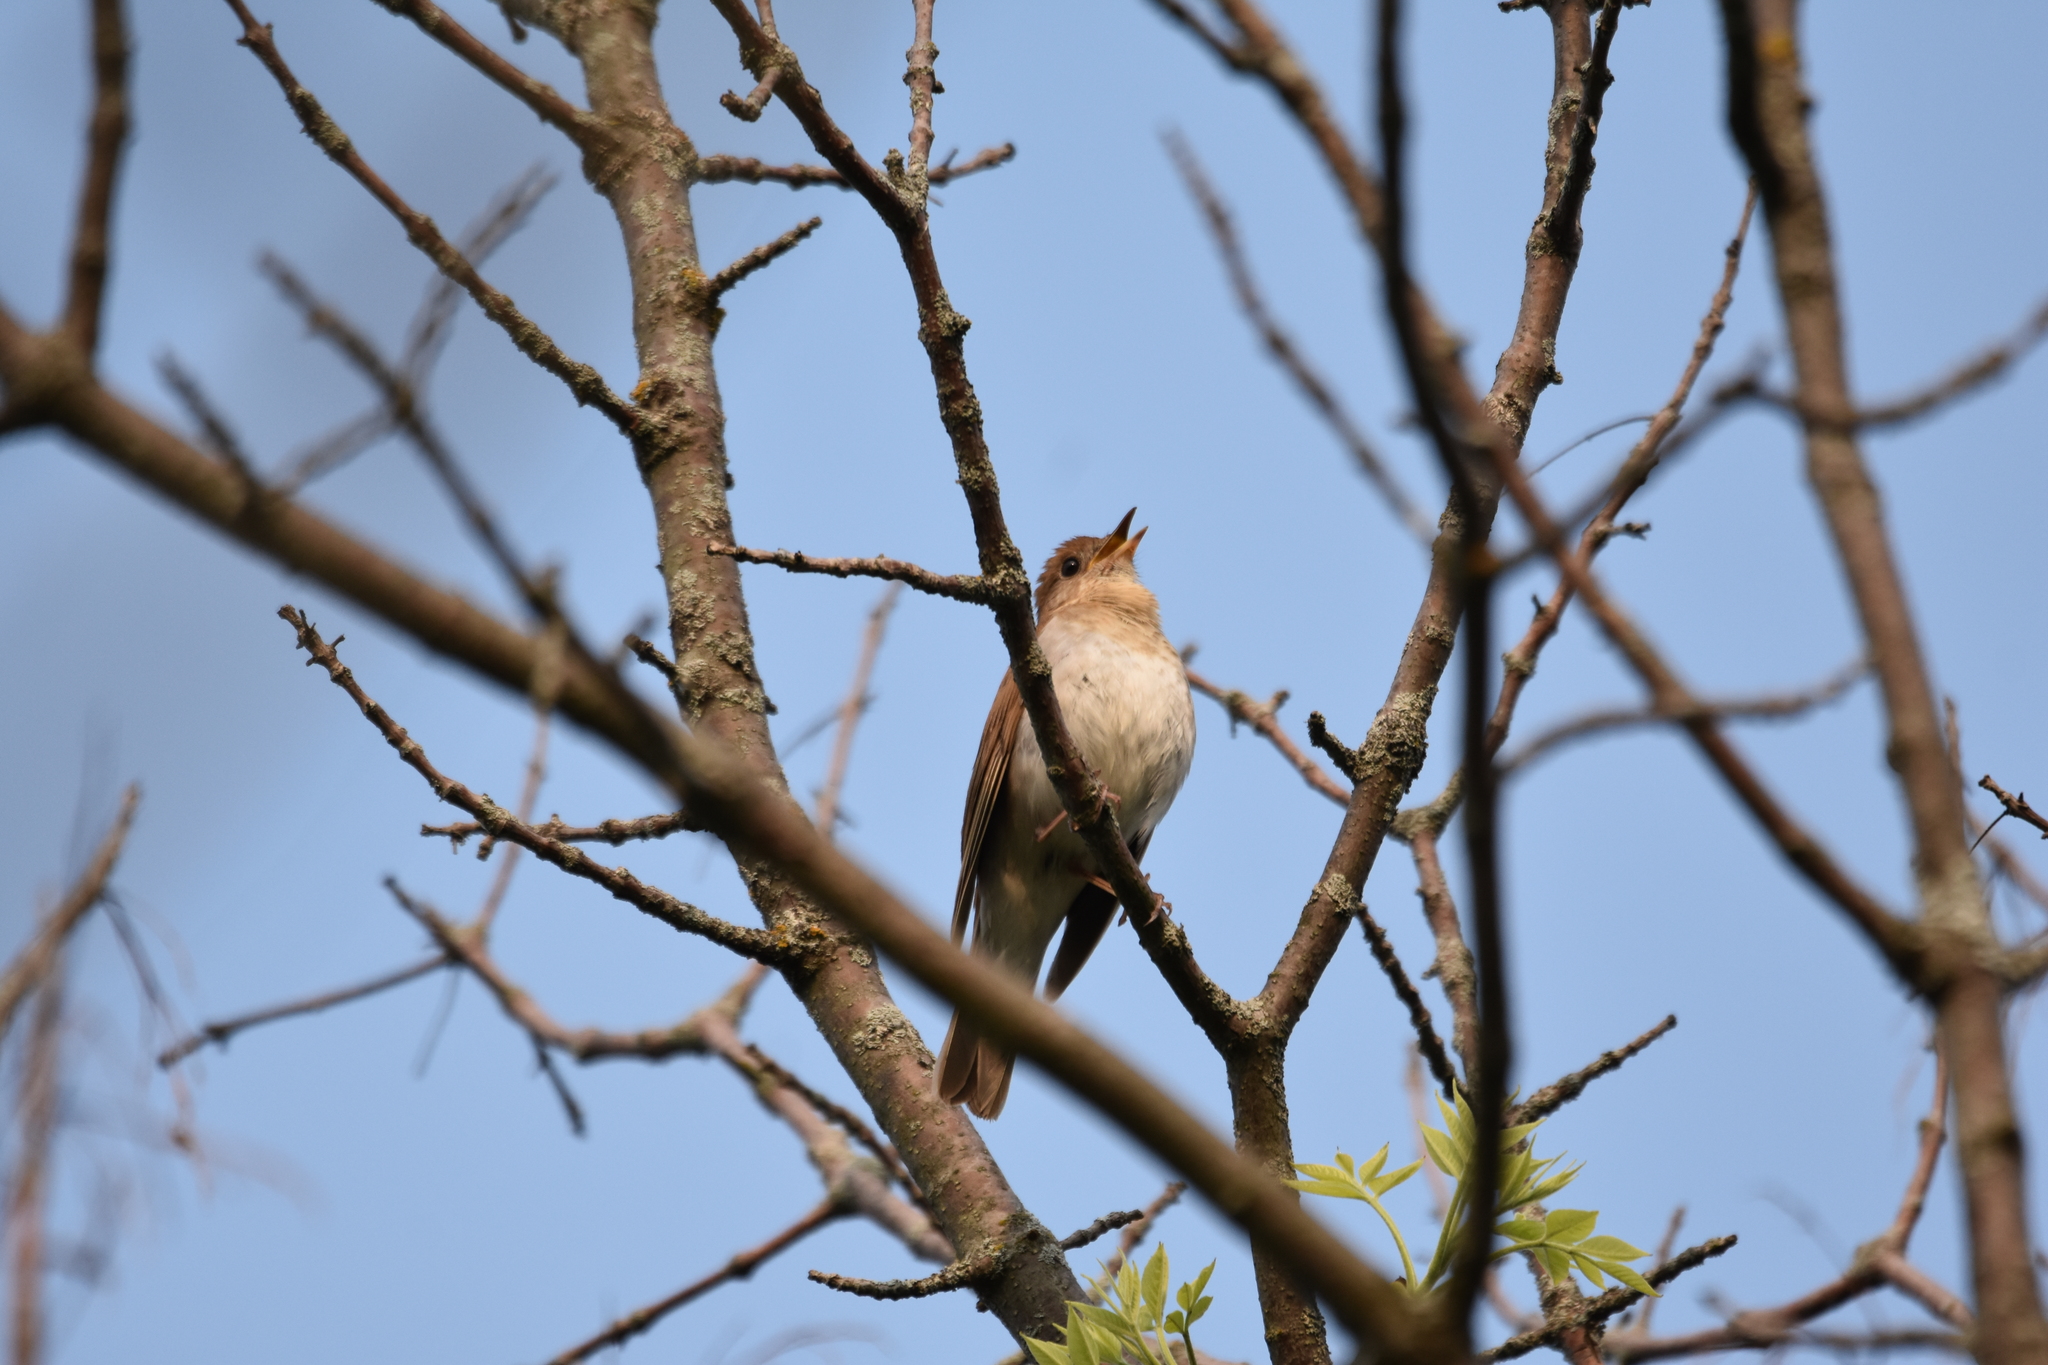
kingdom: Animalia
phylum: Chordata
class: Aves
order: Passeriformes
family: Turdidae
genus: Catharus
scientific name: Catharus fuscescens
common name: Veery
